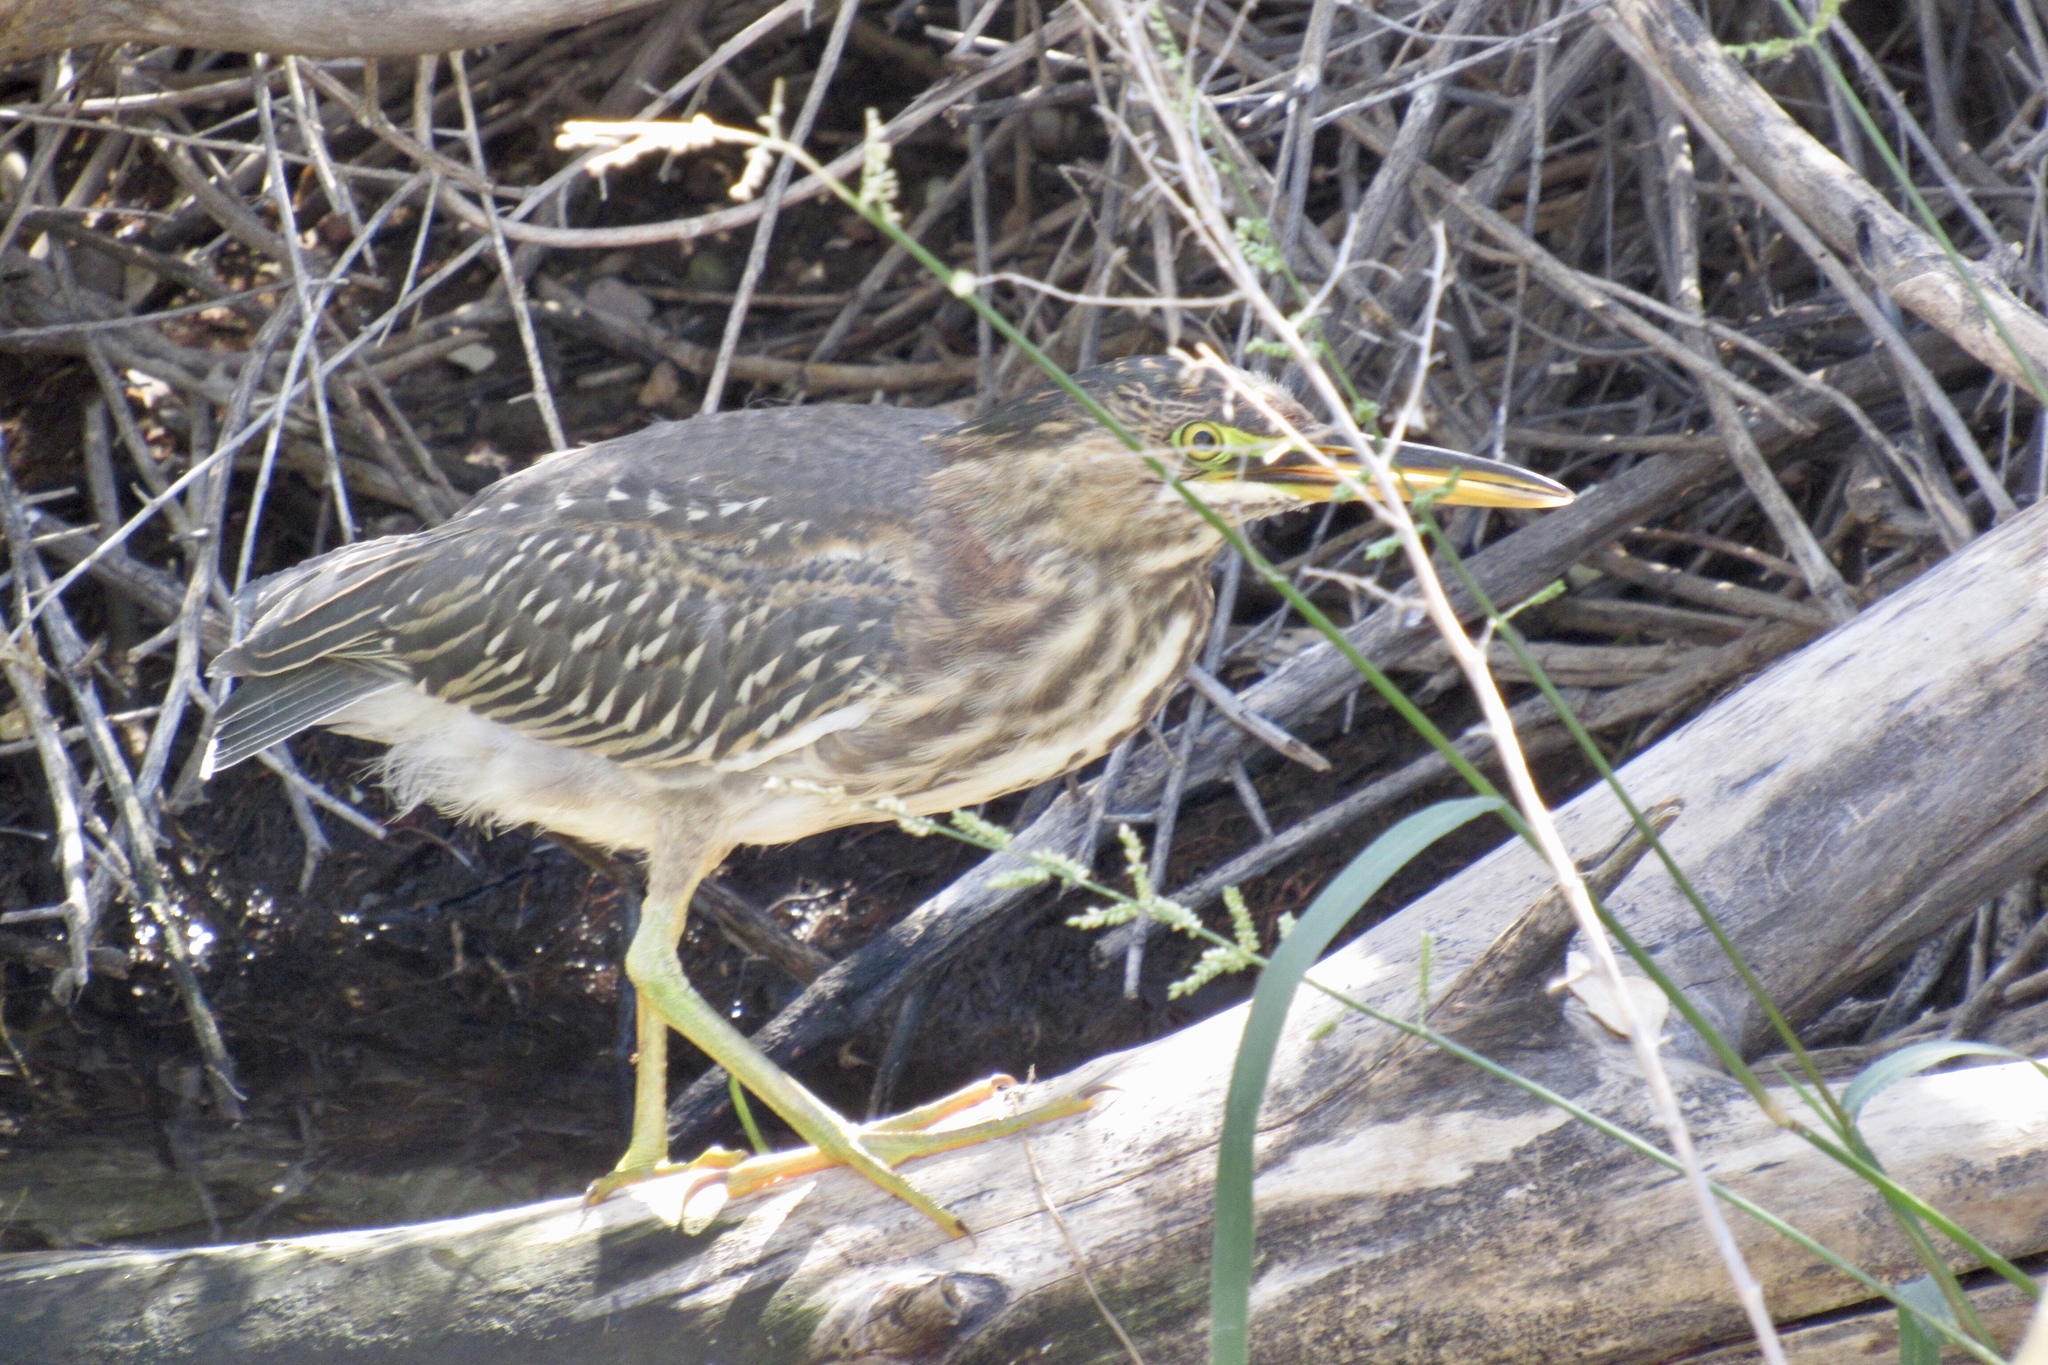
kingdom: Animalia
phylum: Chordata
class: Aves
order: Pelecaniformes
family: Ardeidae
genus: Butorides
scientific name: Butorides virescens
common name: Green heron
